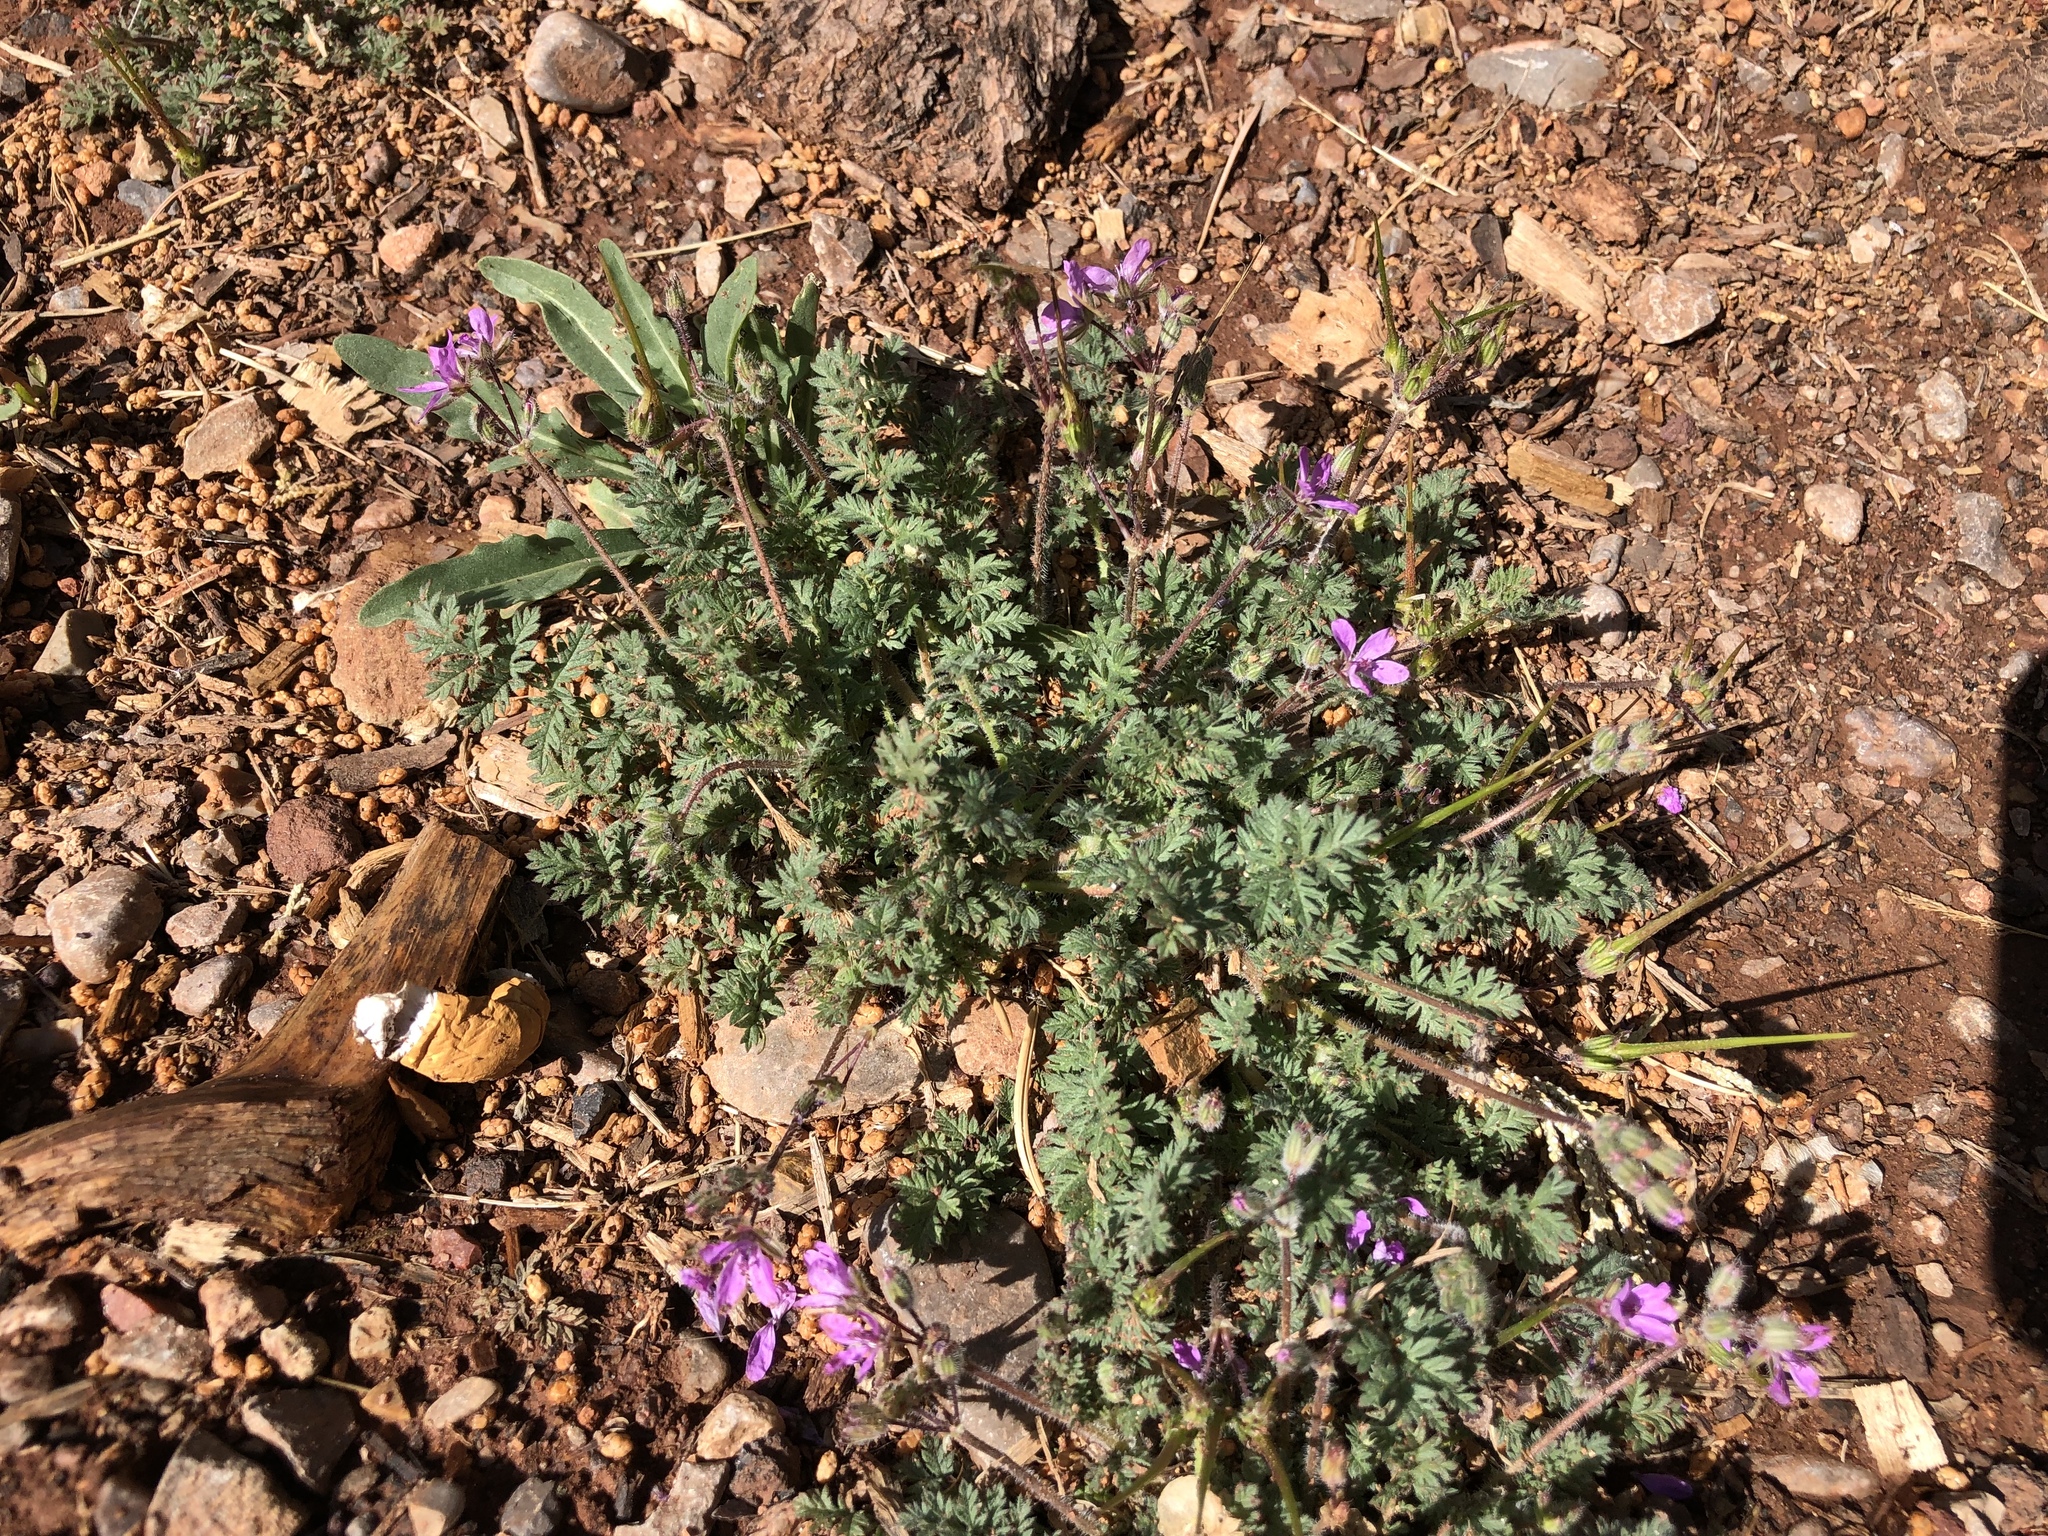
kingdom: Plantae
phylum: Tracheophyta
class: Magnoliopsida
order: Geraniales
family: Geraniaceae
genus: Erodium
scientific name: Erodium cicutarium
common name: Common stork's-bill
